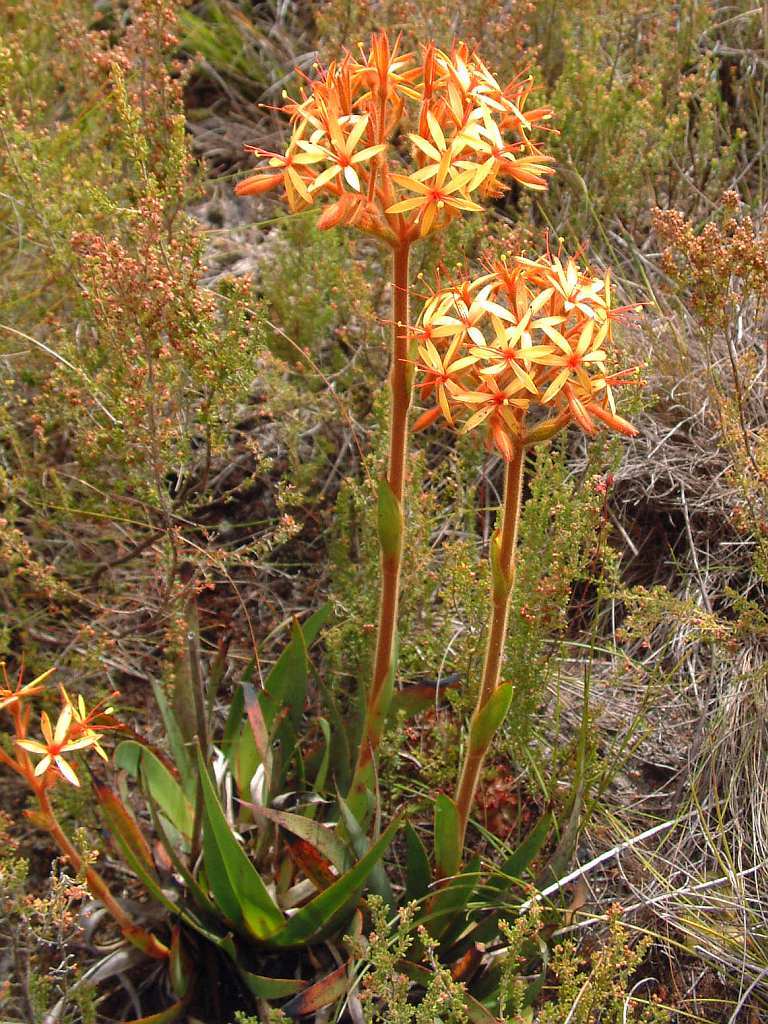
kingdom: Plantae
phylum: Tracheophyta
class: Liliopsida
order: Commelinales
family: Haemodoraceae
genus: Dilatris
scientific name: Dilatris viscosa
